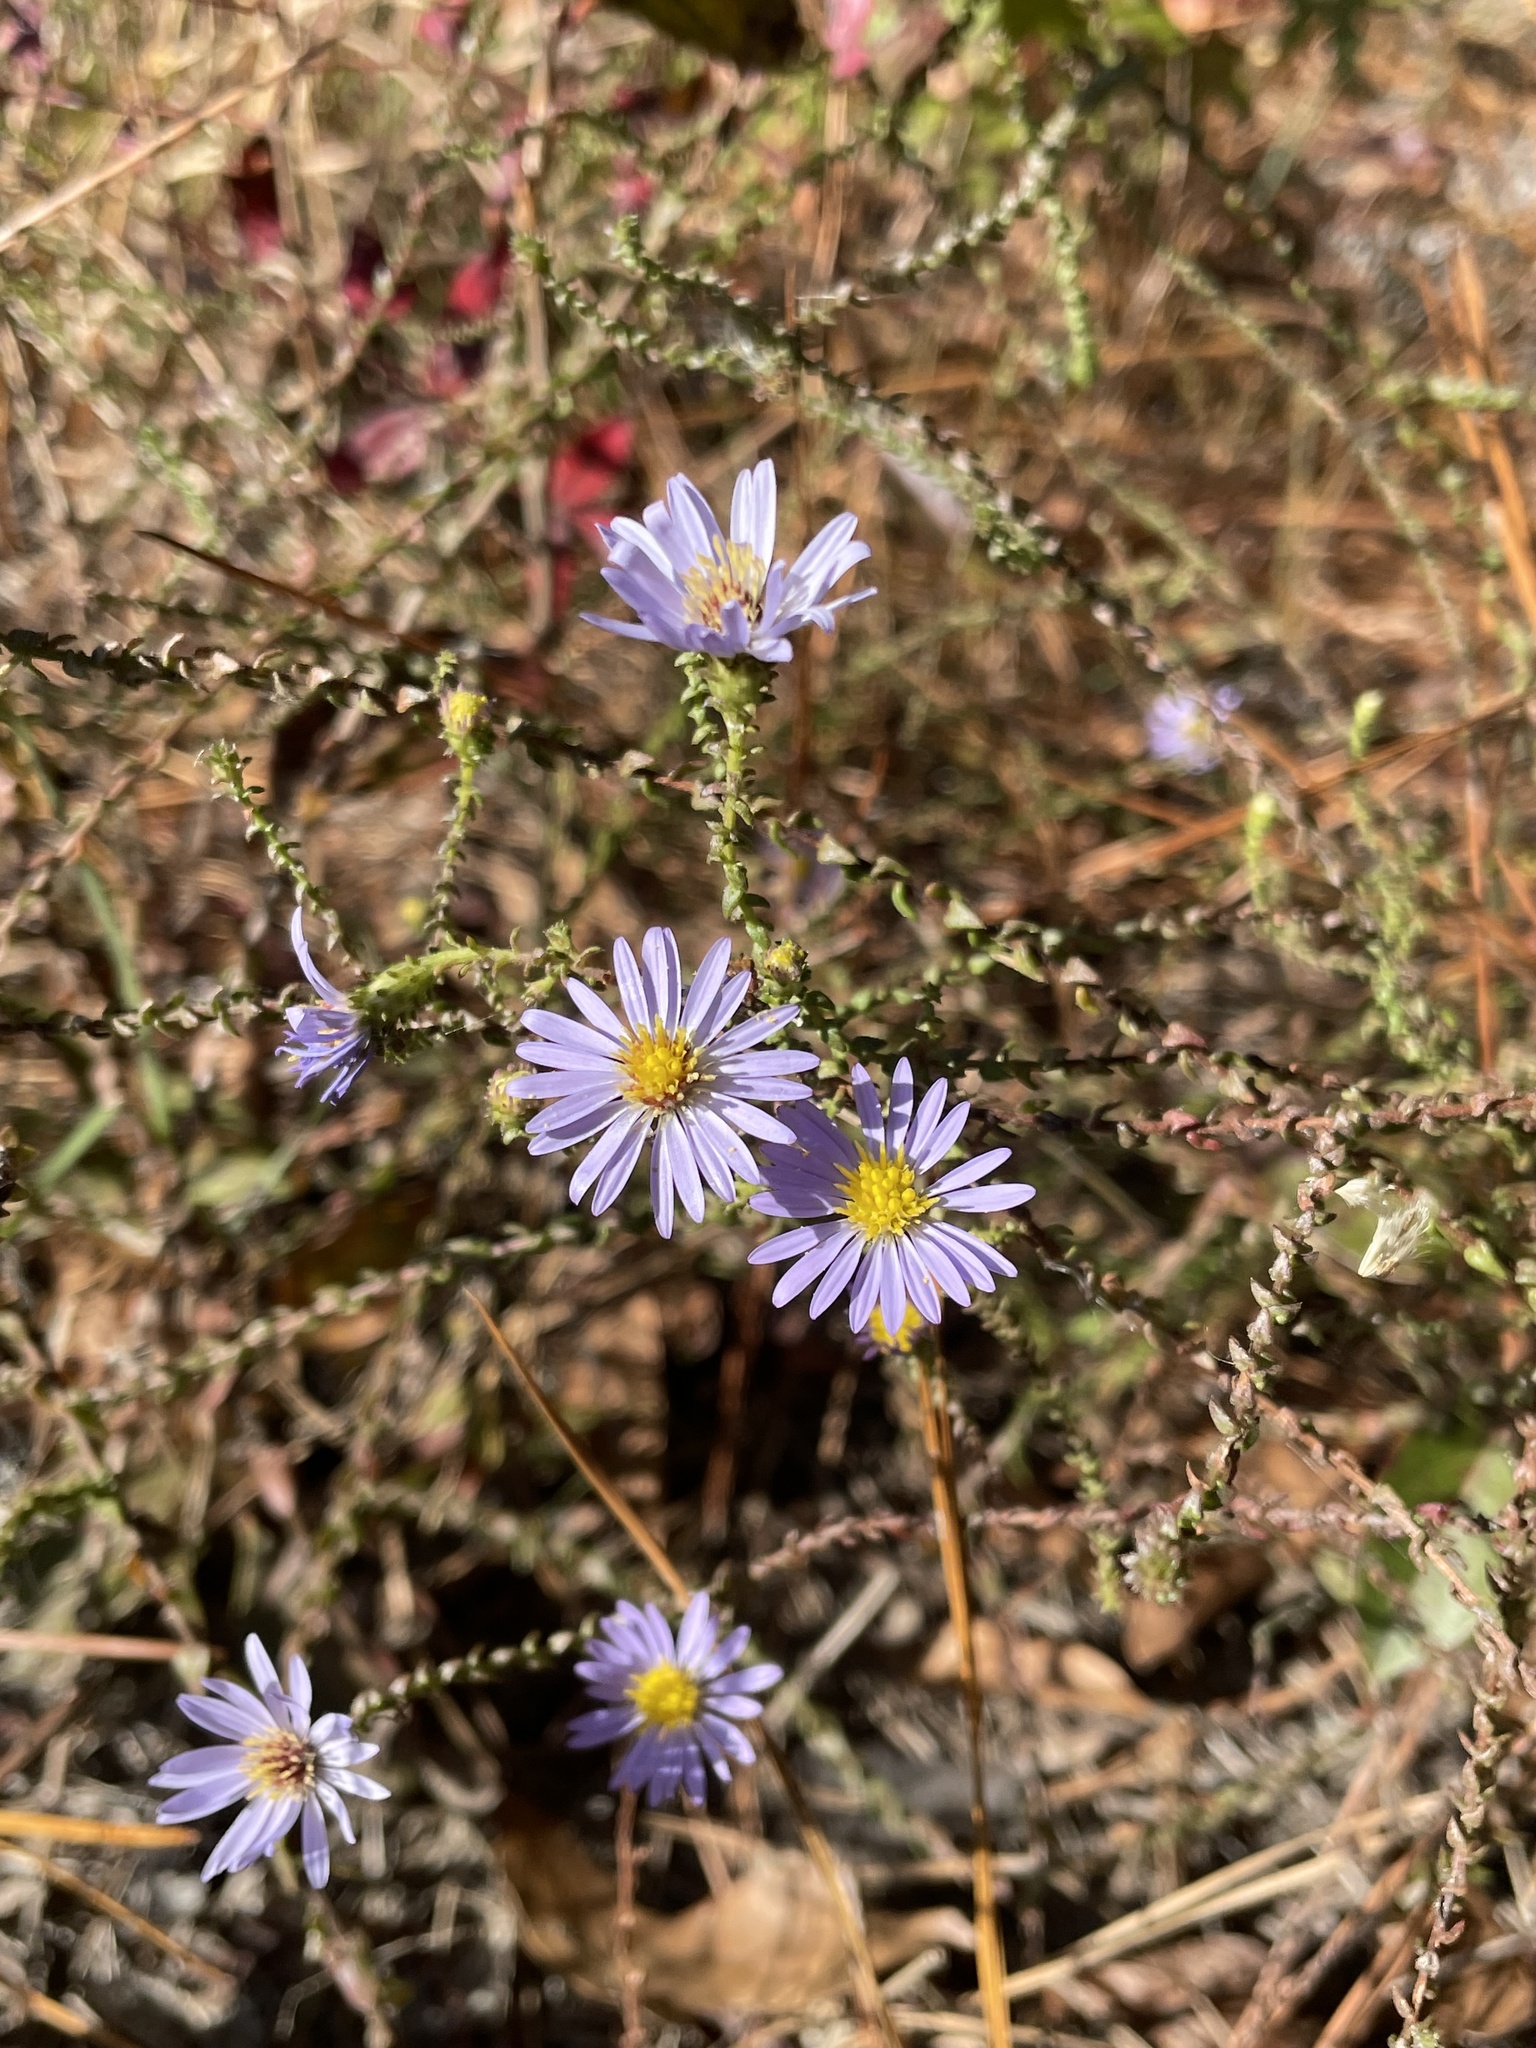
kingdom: Plantae
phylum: Tracheophyta
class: Magnoliopsida
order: Asterales
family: Asteraceae
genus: Symphyotrichum
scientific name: Symphyotrichum walteri
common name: Walter's aster
